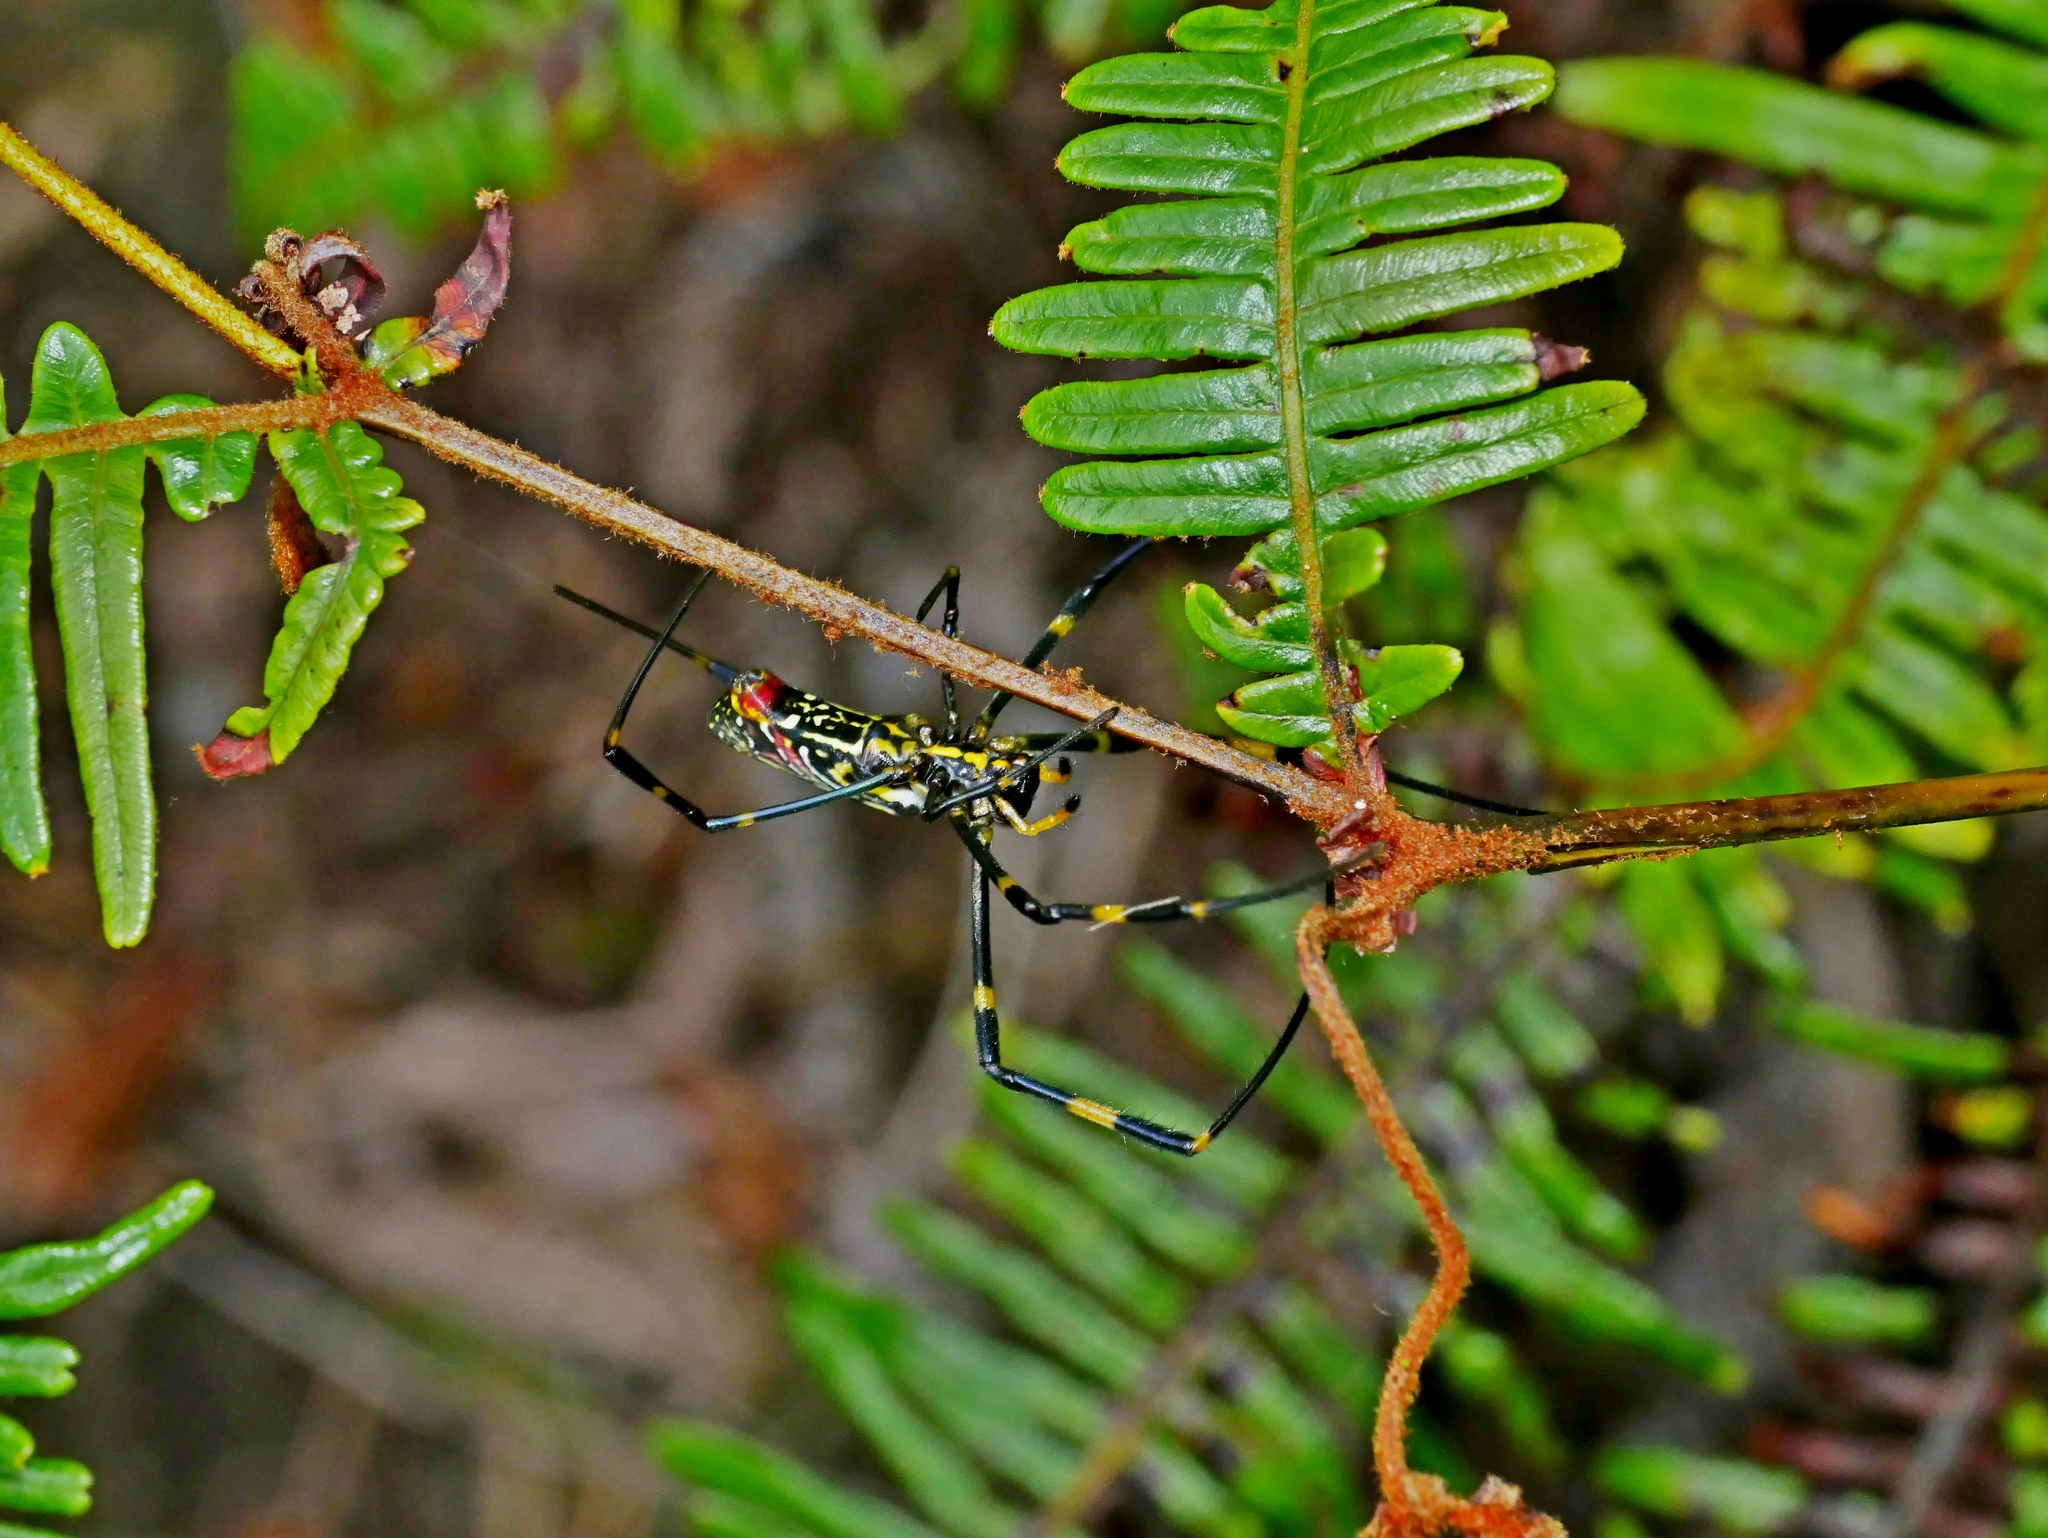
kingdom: Animalia
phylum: Arthropoda
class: Arachnida
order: Araneae
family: Araneidae
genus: Trichonephila
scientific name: Trichonephila clavata
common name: Jorō spider
